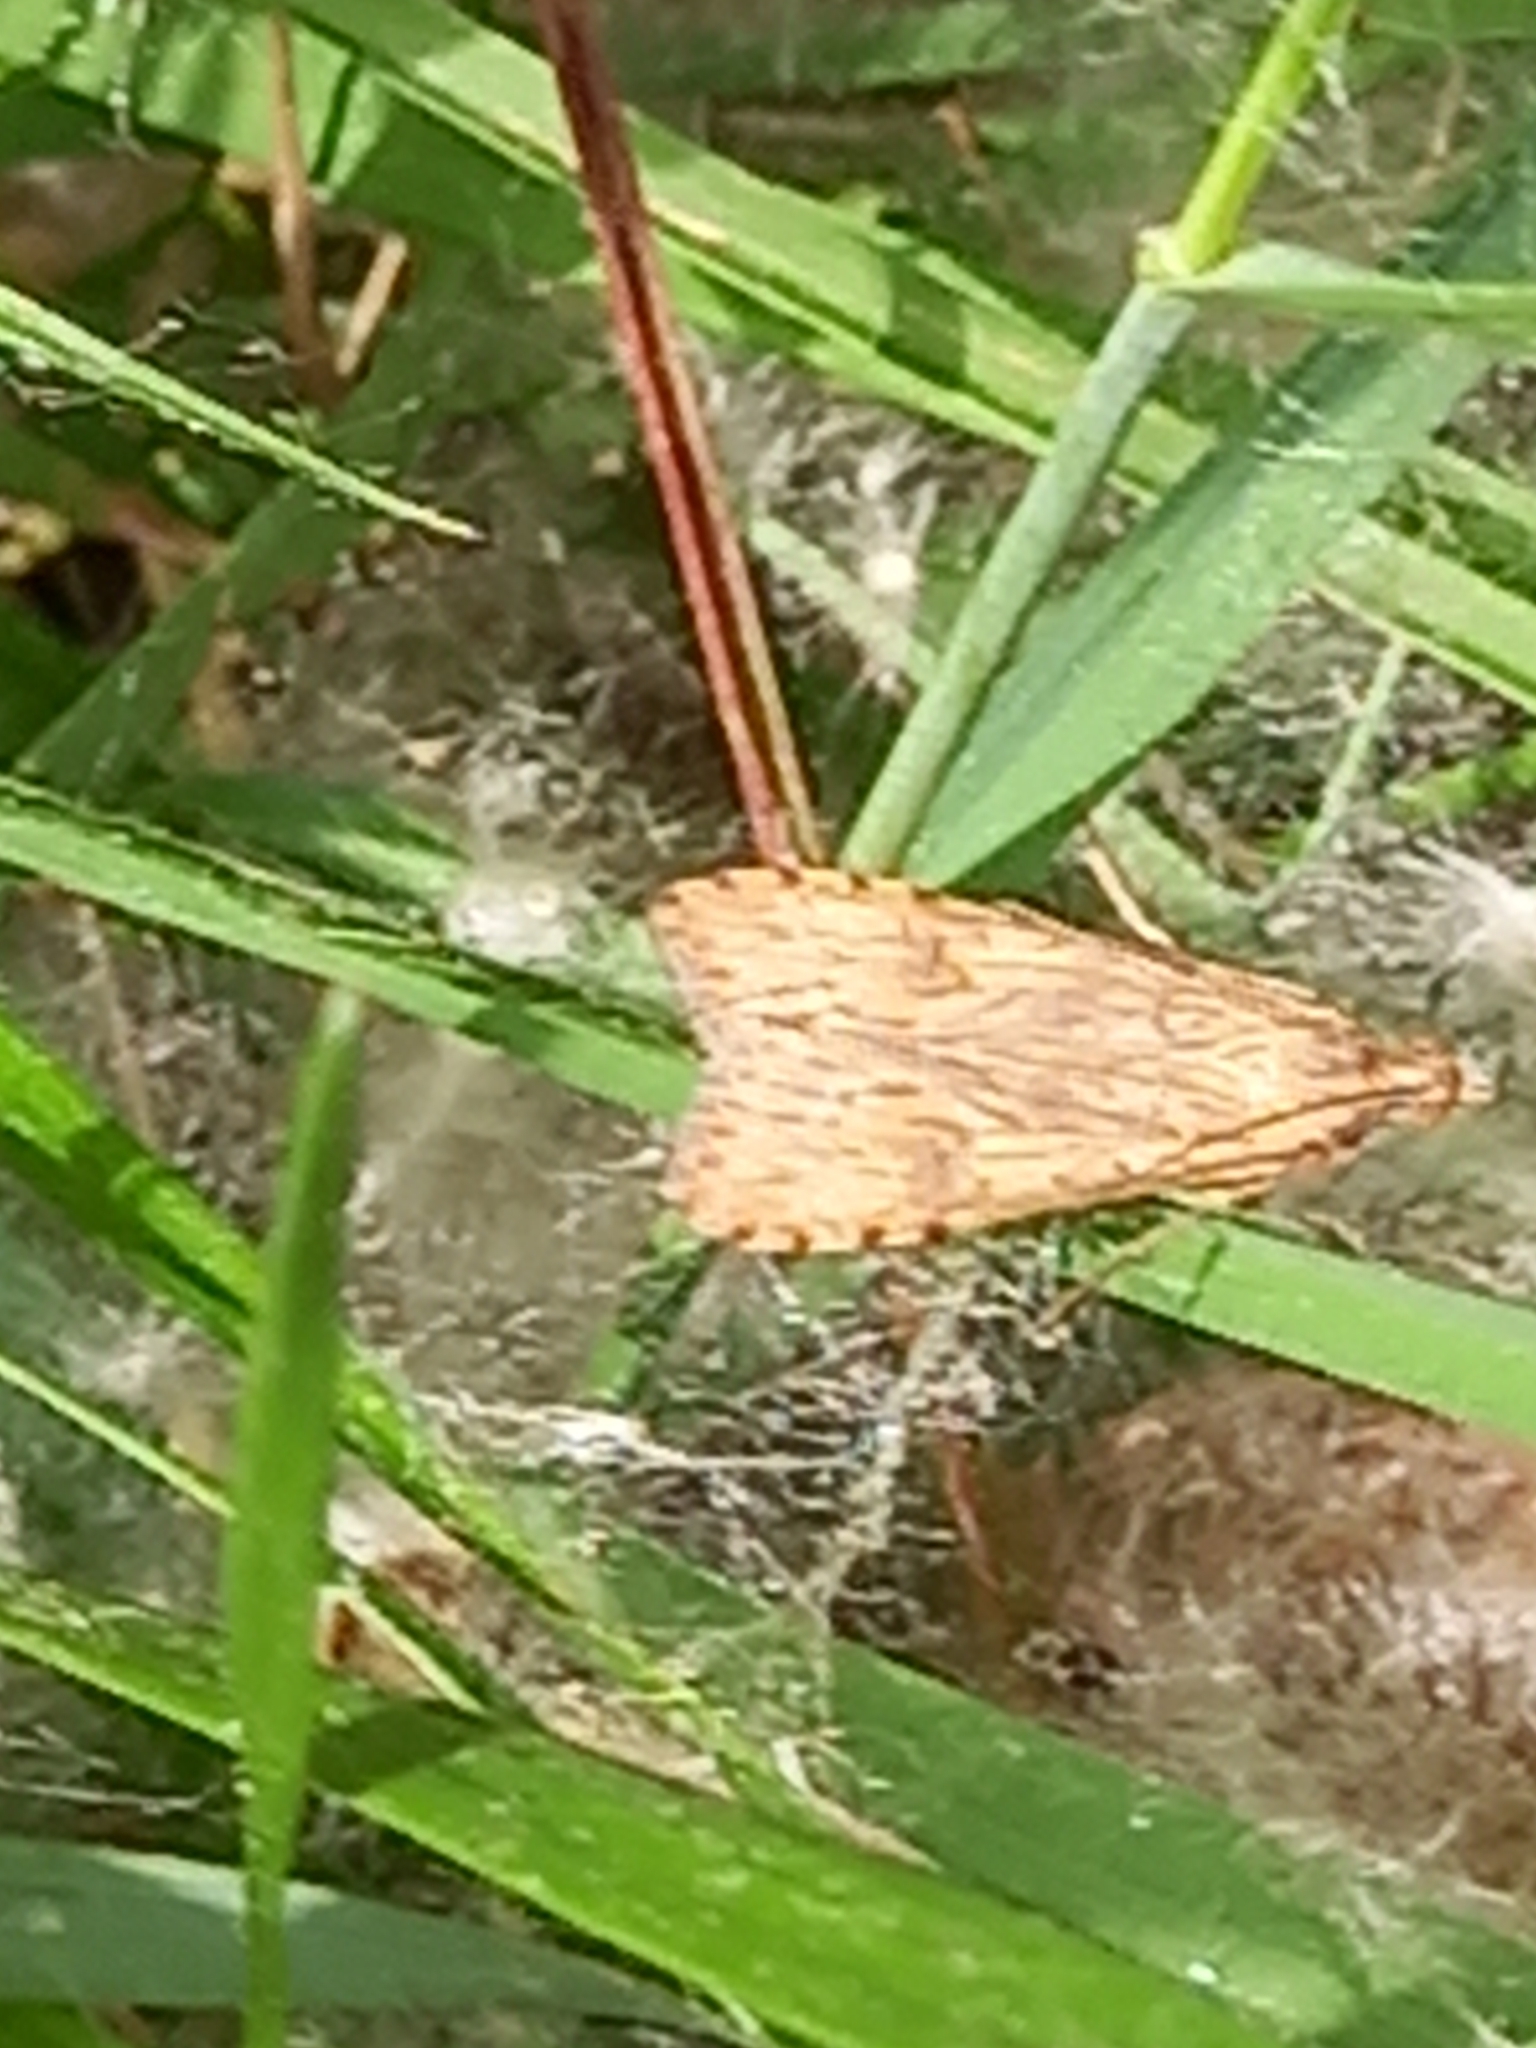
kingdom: Animalia
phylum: Arthropoda
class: Insecta
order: Lepidoptera
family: Crambidae
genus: Nomophila
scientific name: Nomophila noctuella
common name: Rush veneer
